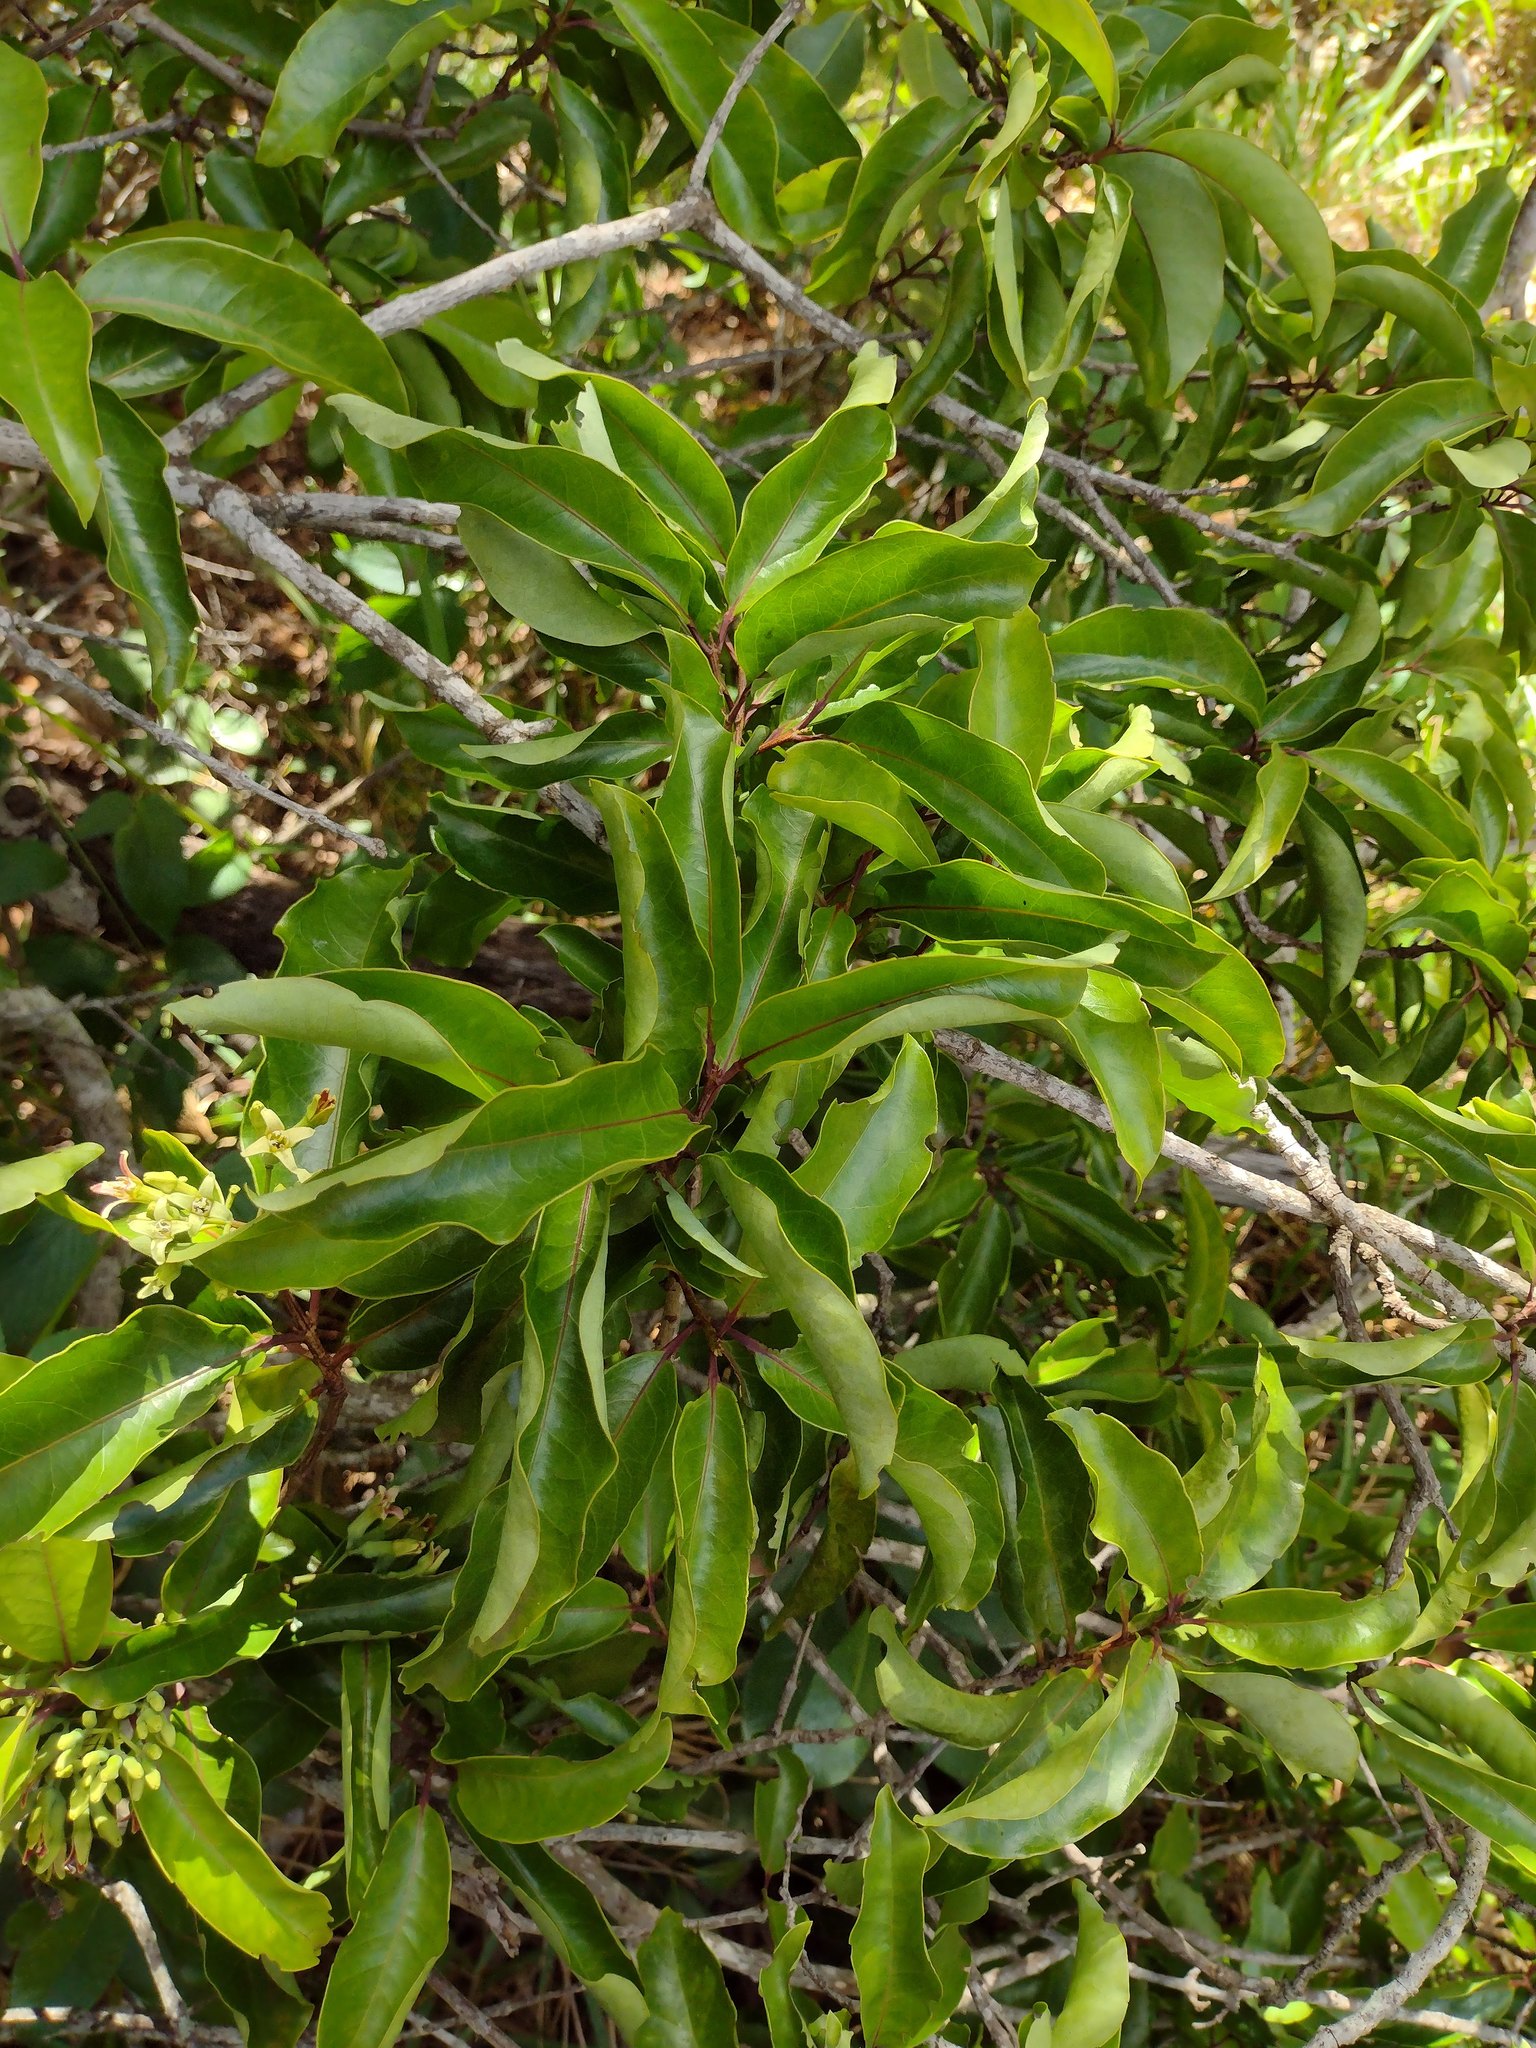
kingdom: Plantae
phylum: Tracheophyta
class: Magnoliopsida
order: Santalales
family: Santalaceae
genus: Santalum
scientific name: Santalum freycinetianum
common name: Lanai sandalwood
